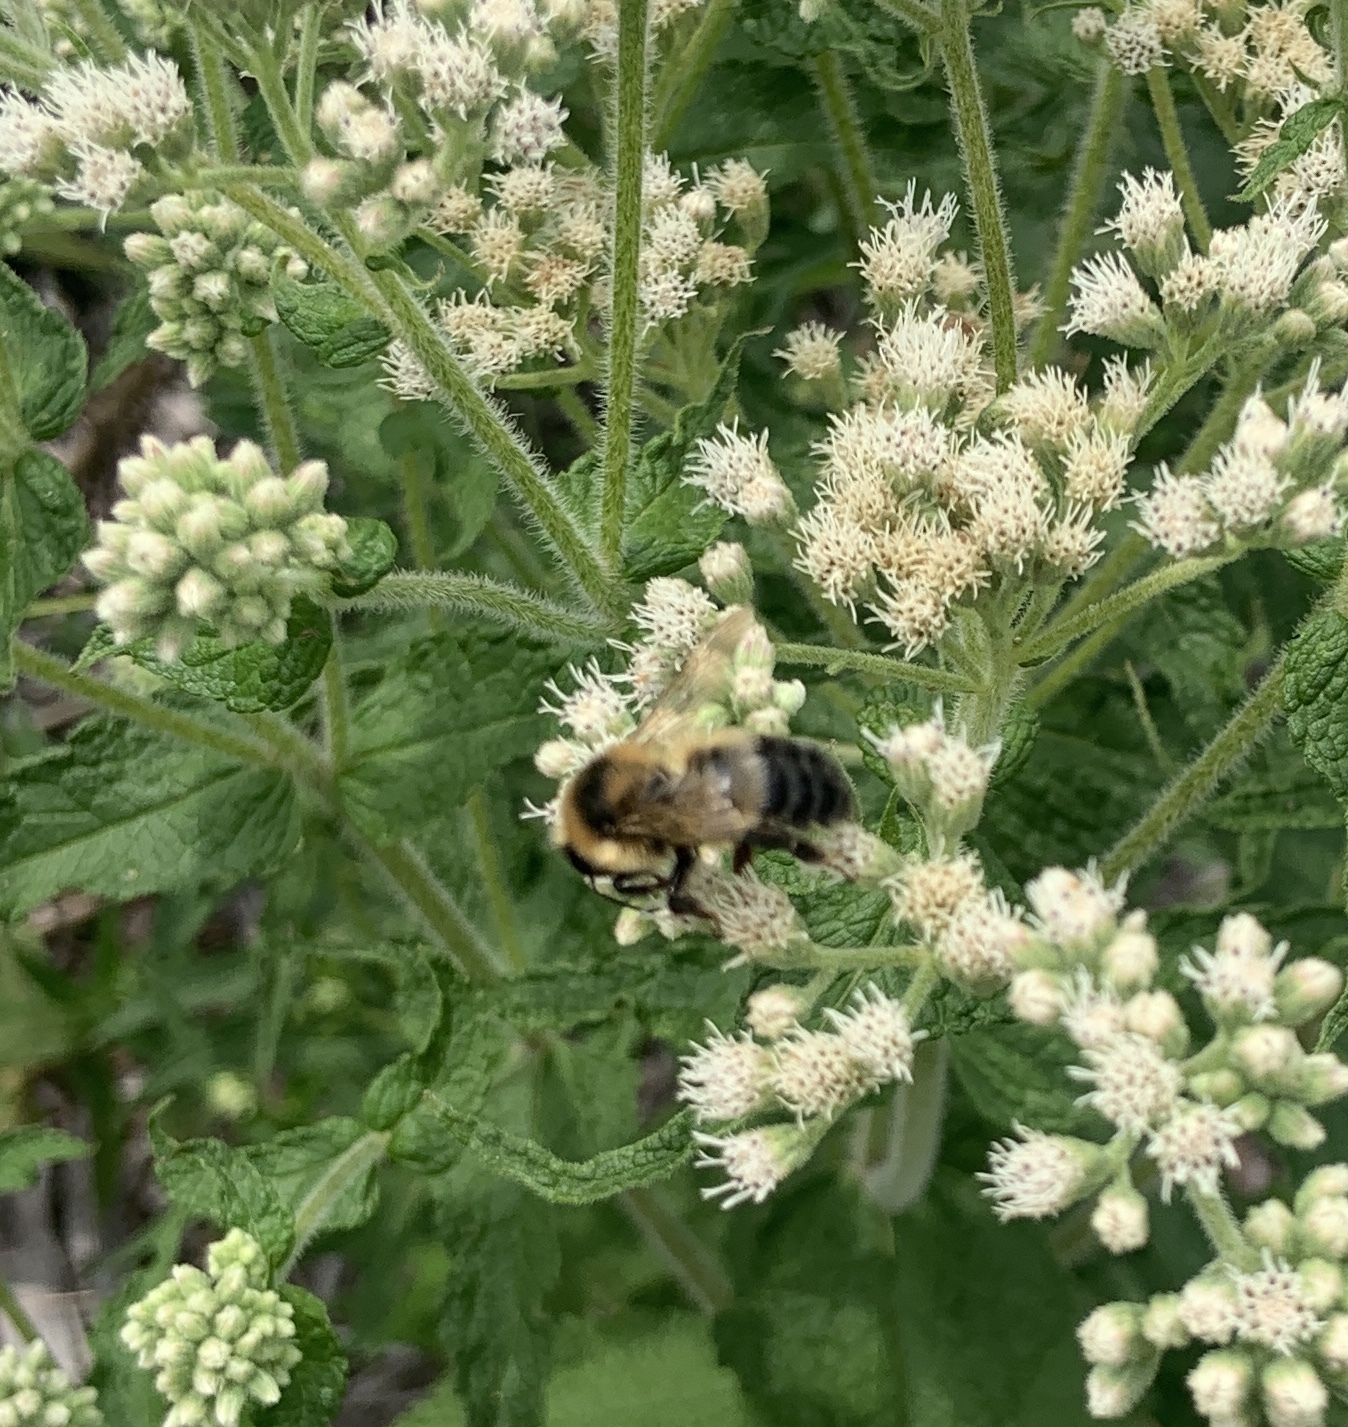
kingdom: Animalia
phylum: Arthropoda
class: Insecta
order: Hymenoptera
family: Apidae
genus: Bombus
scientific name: Bombus rufocinctus
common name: Red-belted bumble bee
